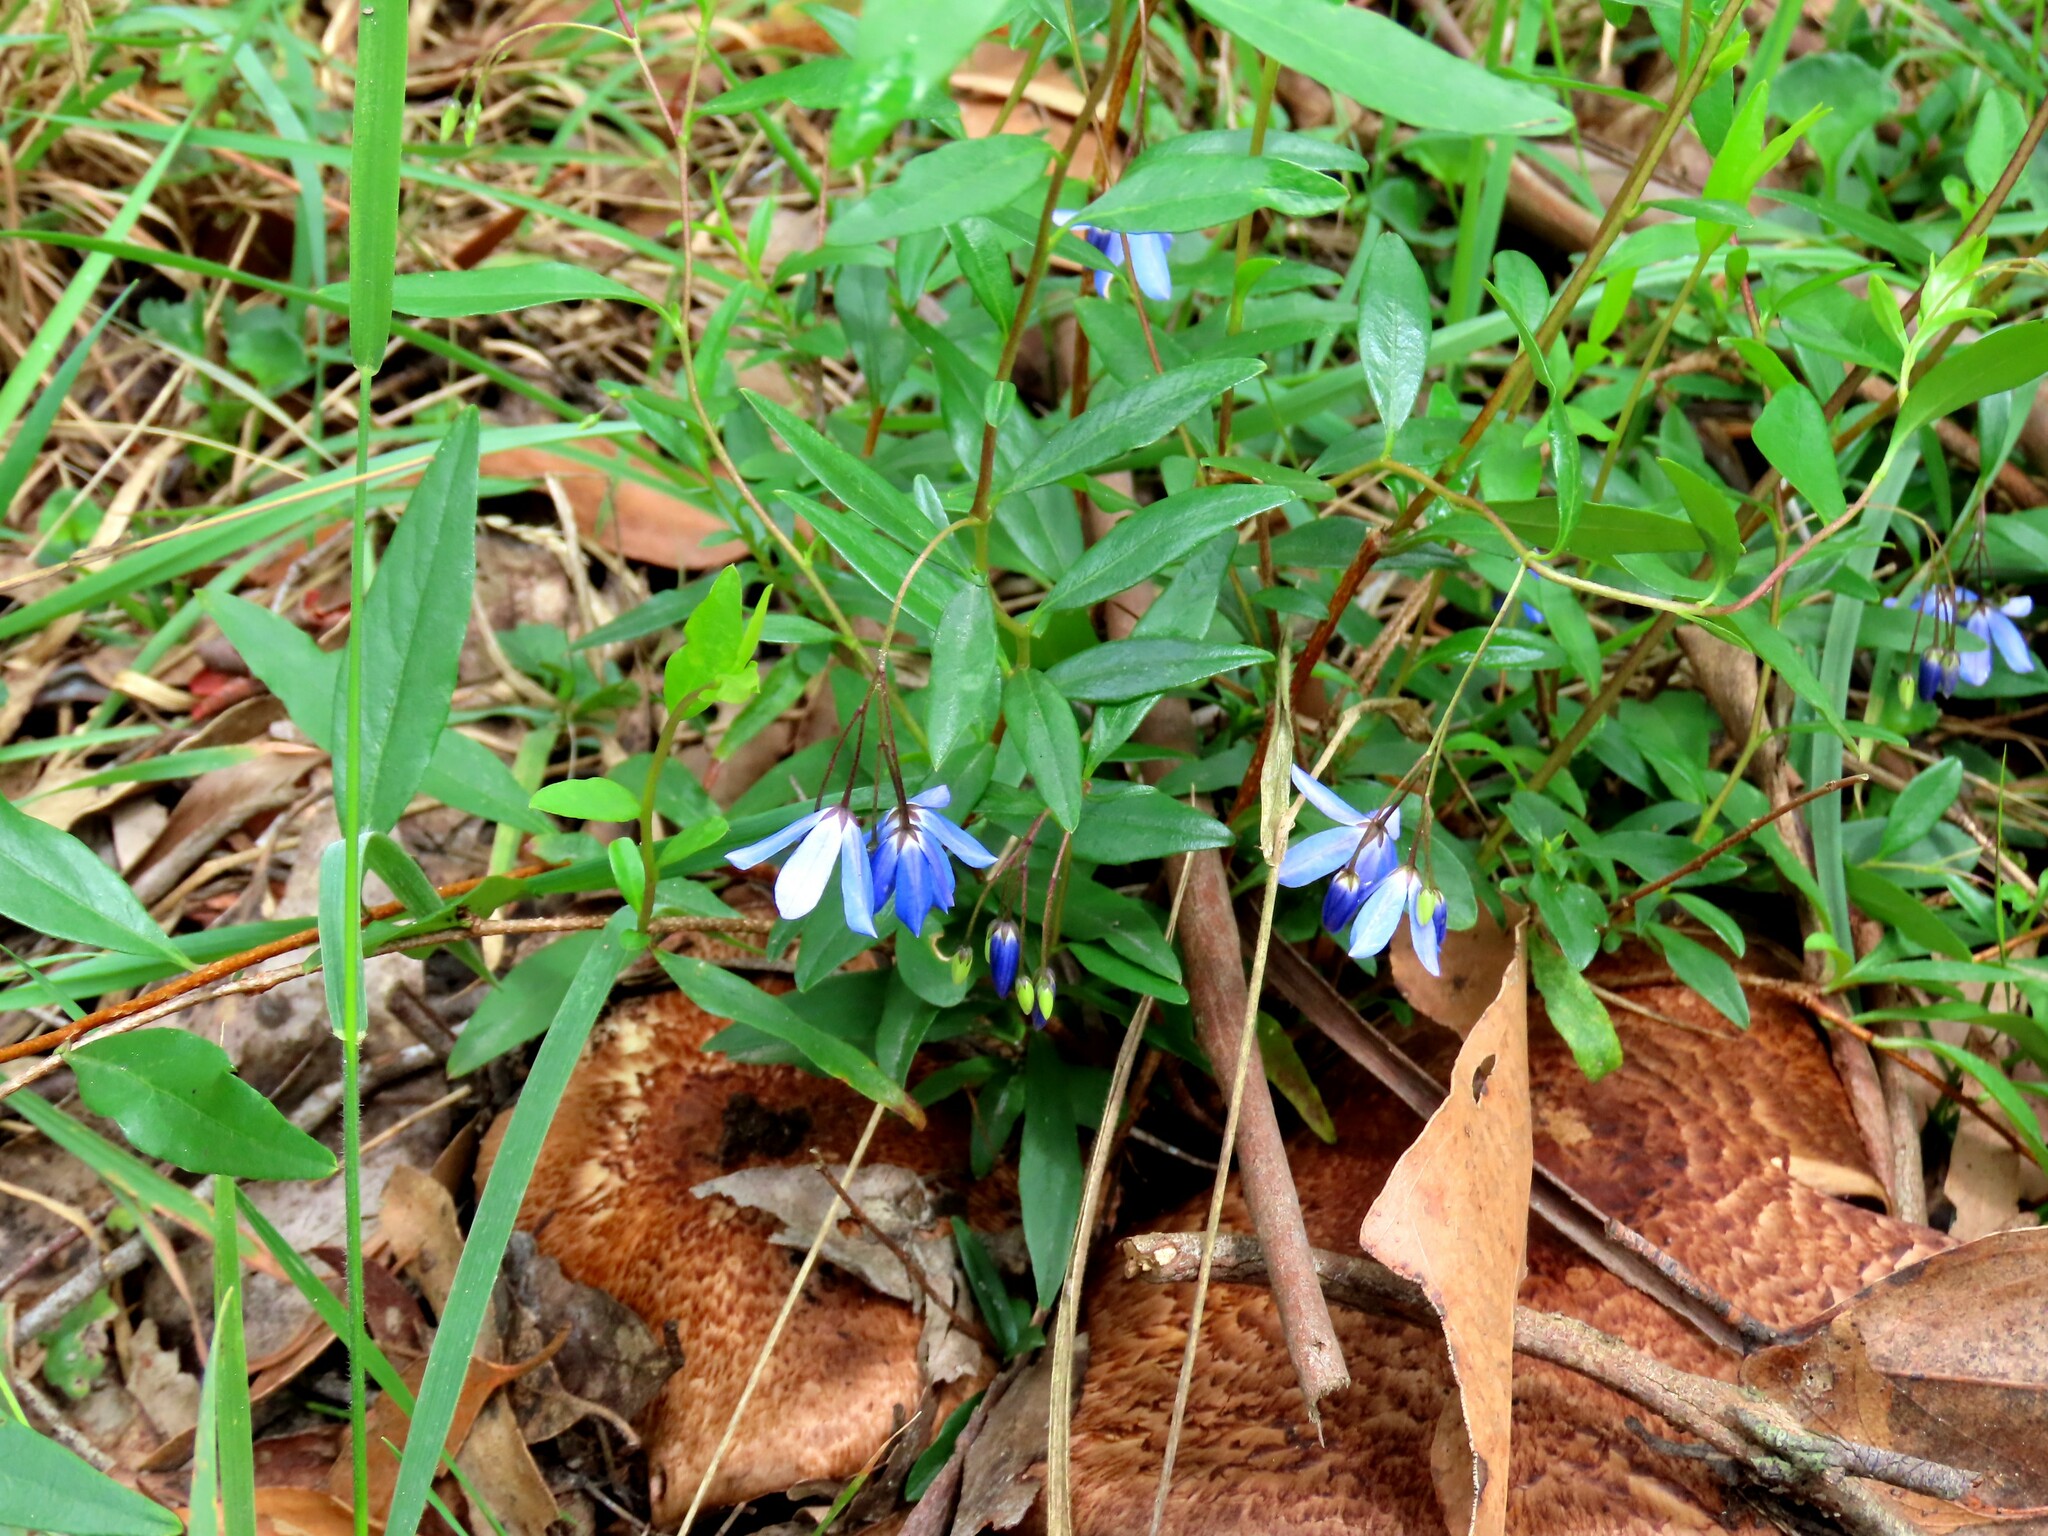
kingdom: Plantae
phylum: Tracheophyta
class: Magnoliopsida
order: Apiales
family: Pittosporaceae
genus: Billardiera
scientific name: Billardiera fusiformis
